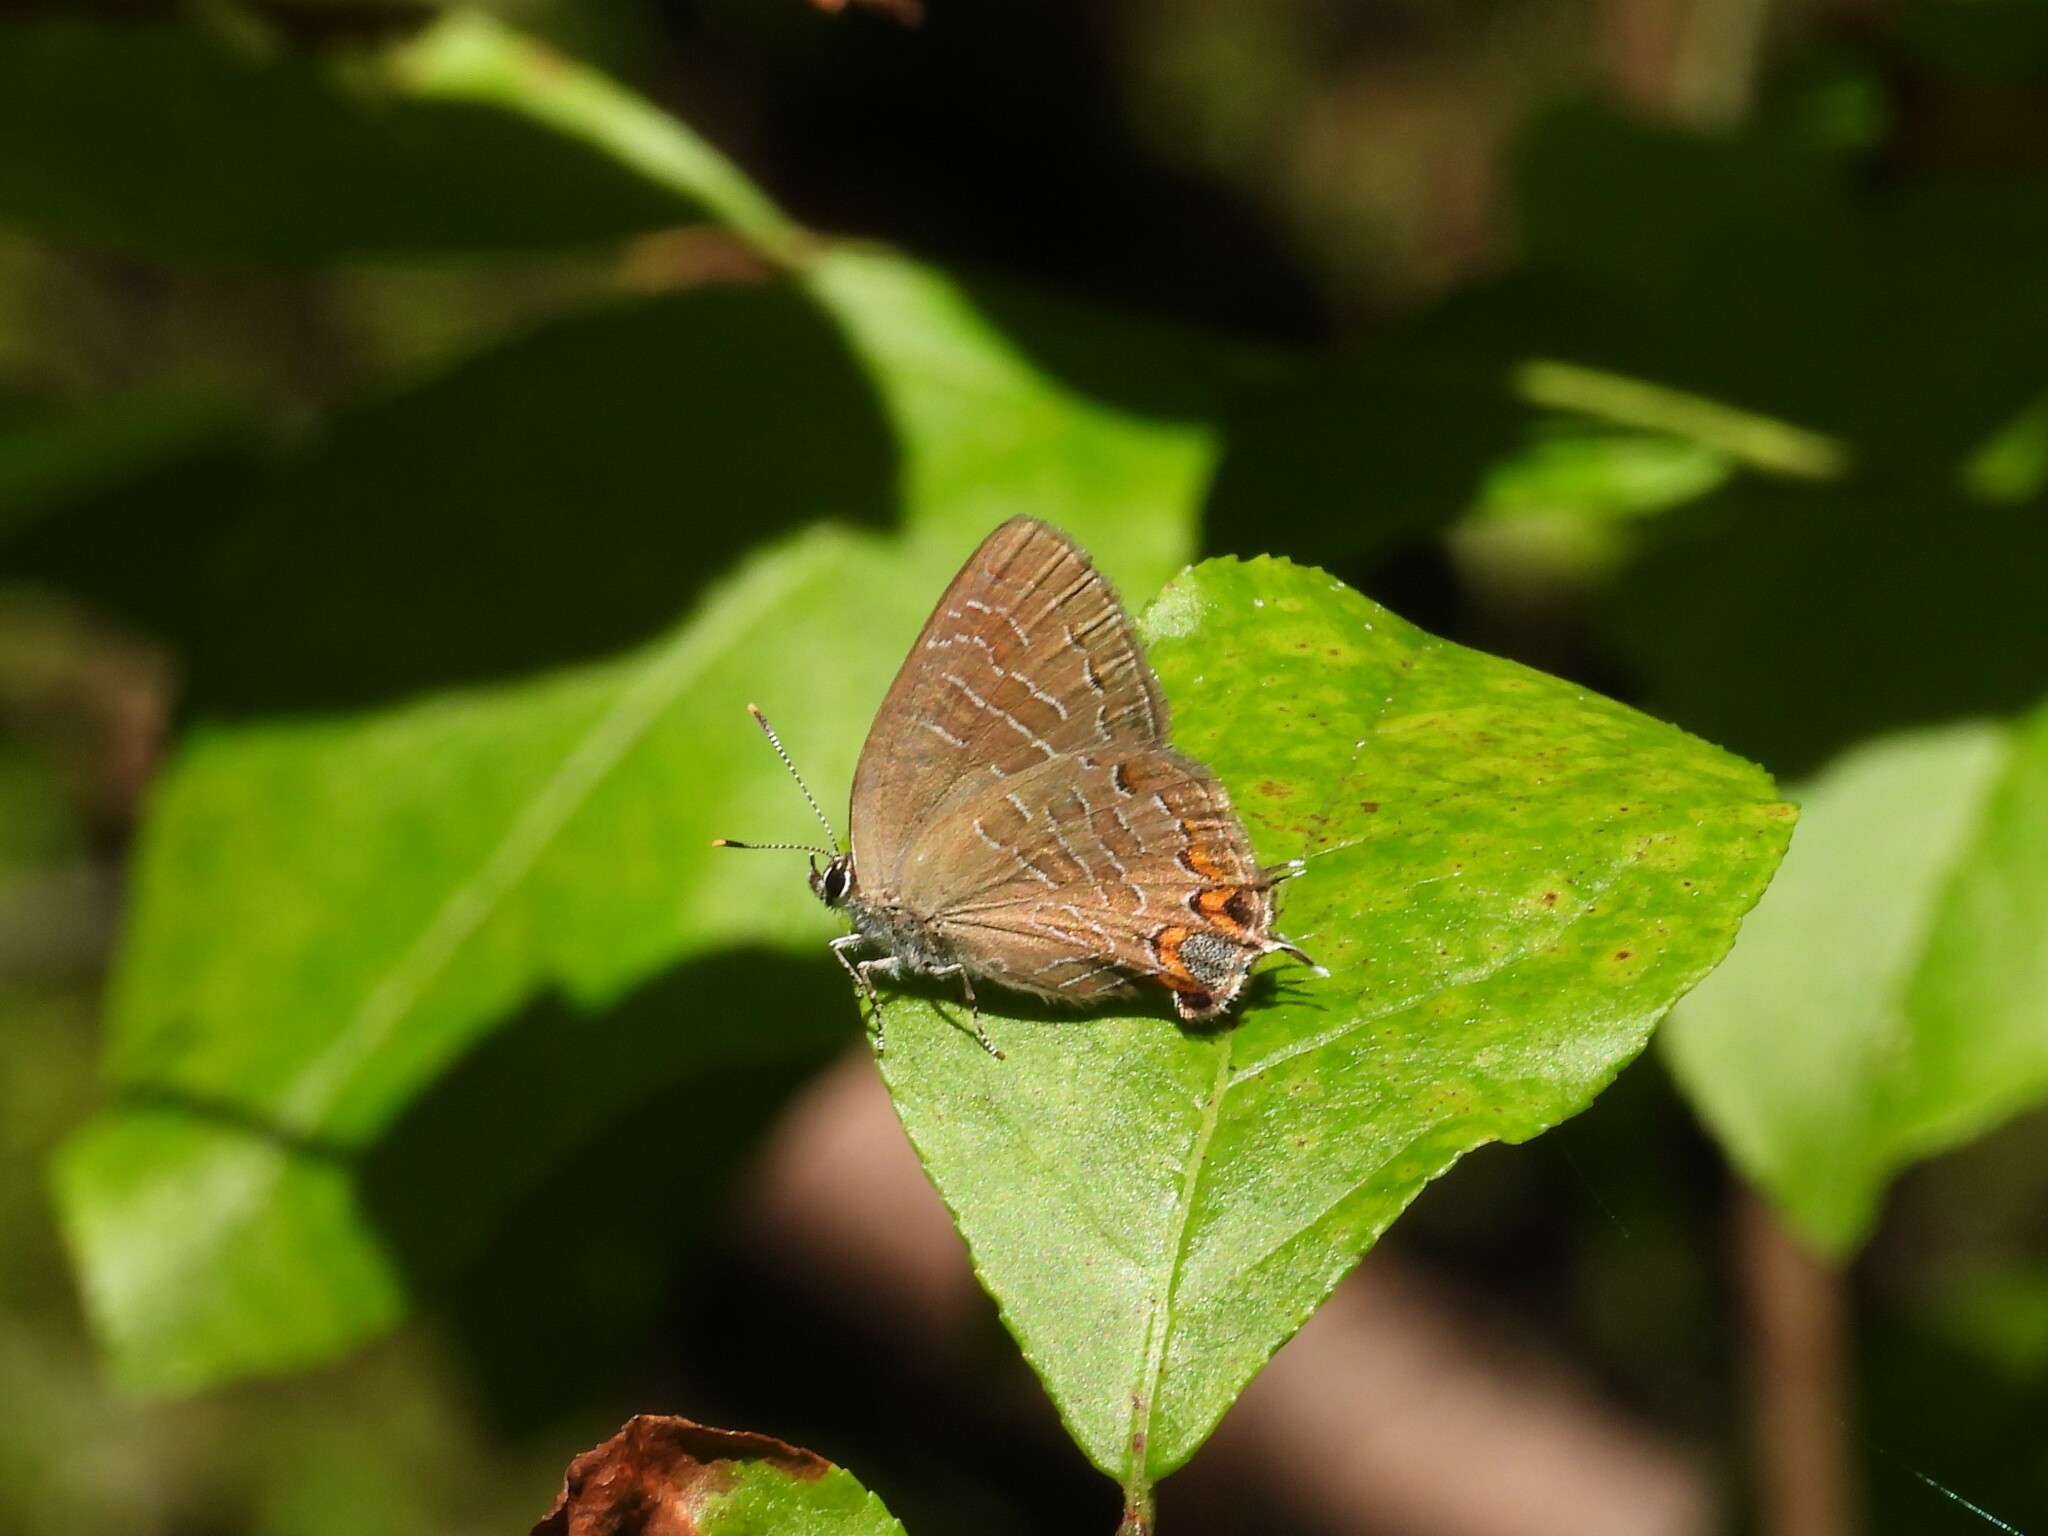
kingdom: Animalia
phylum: Arthropoda
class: Insecta
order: Lepidoptera
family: Lycaenidae
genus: Satyrium
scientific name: Satyrium liparops
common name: Striped hairstreak
